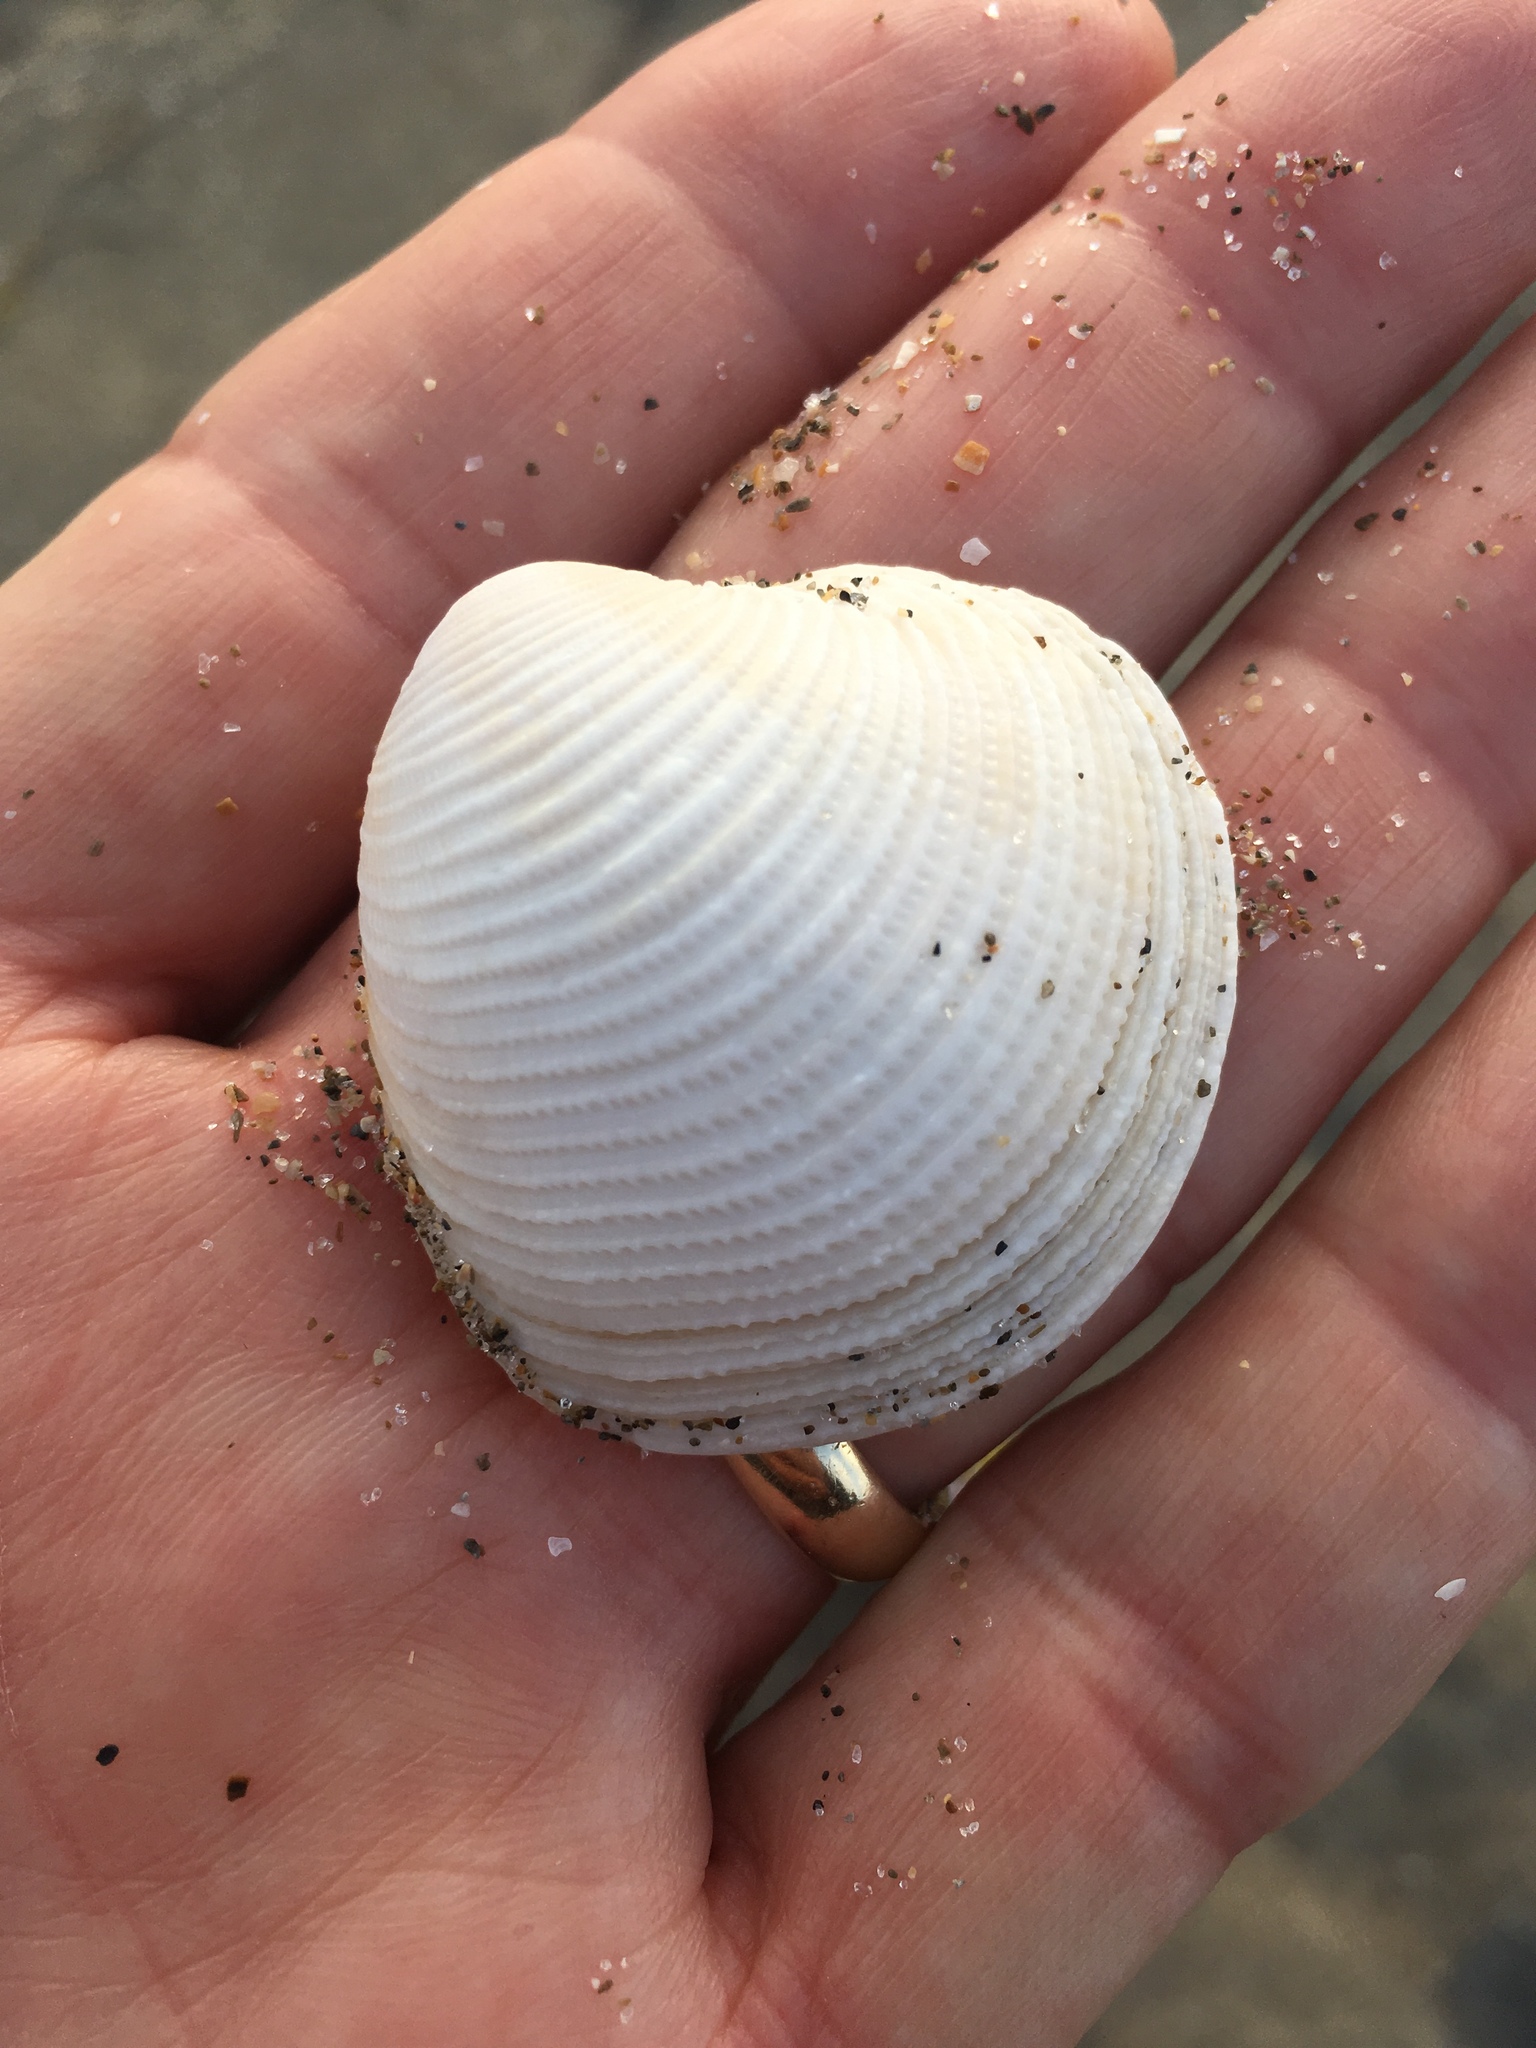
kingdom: Animalia
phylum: Mollusca
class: Bivalvia
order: Venerida
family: Veneridae
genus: Chionopsis
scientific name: Chionopsis intapurpurea
